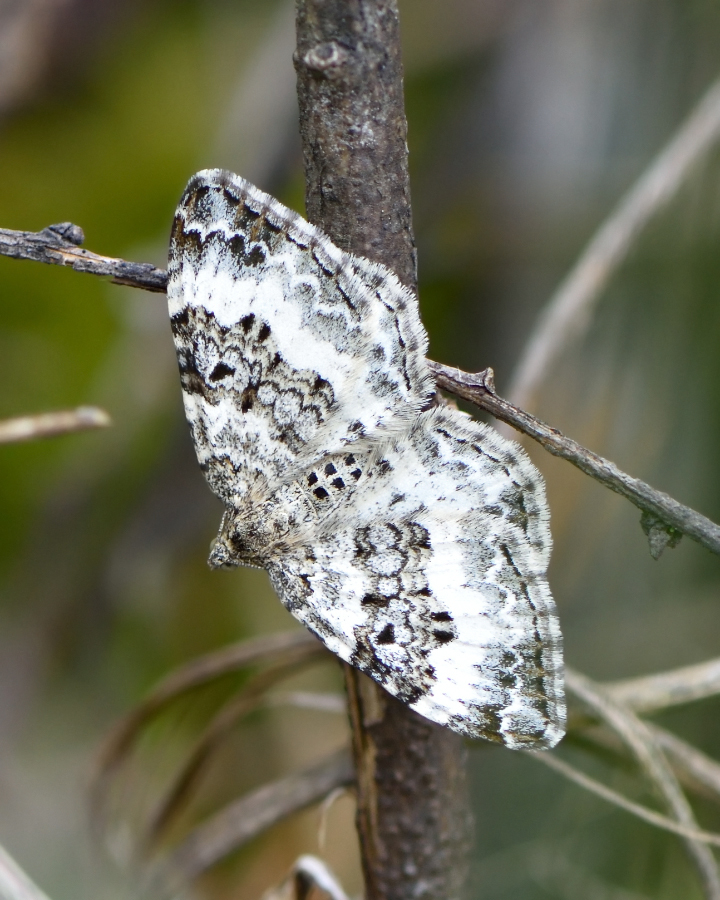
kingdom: Animalia
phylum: Arthropoda
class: Insecta
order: Lepidoptera
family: Geometridae
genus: Epirrhoe
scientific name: Epirrhoe alternata
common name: Common carpet
